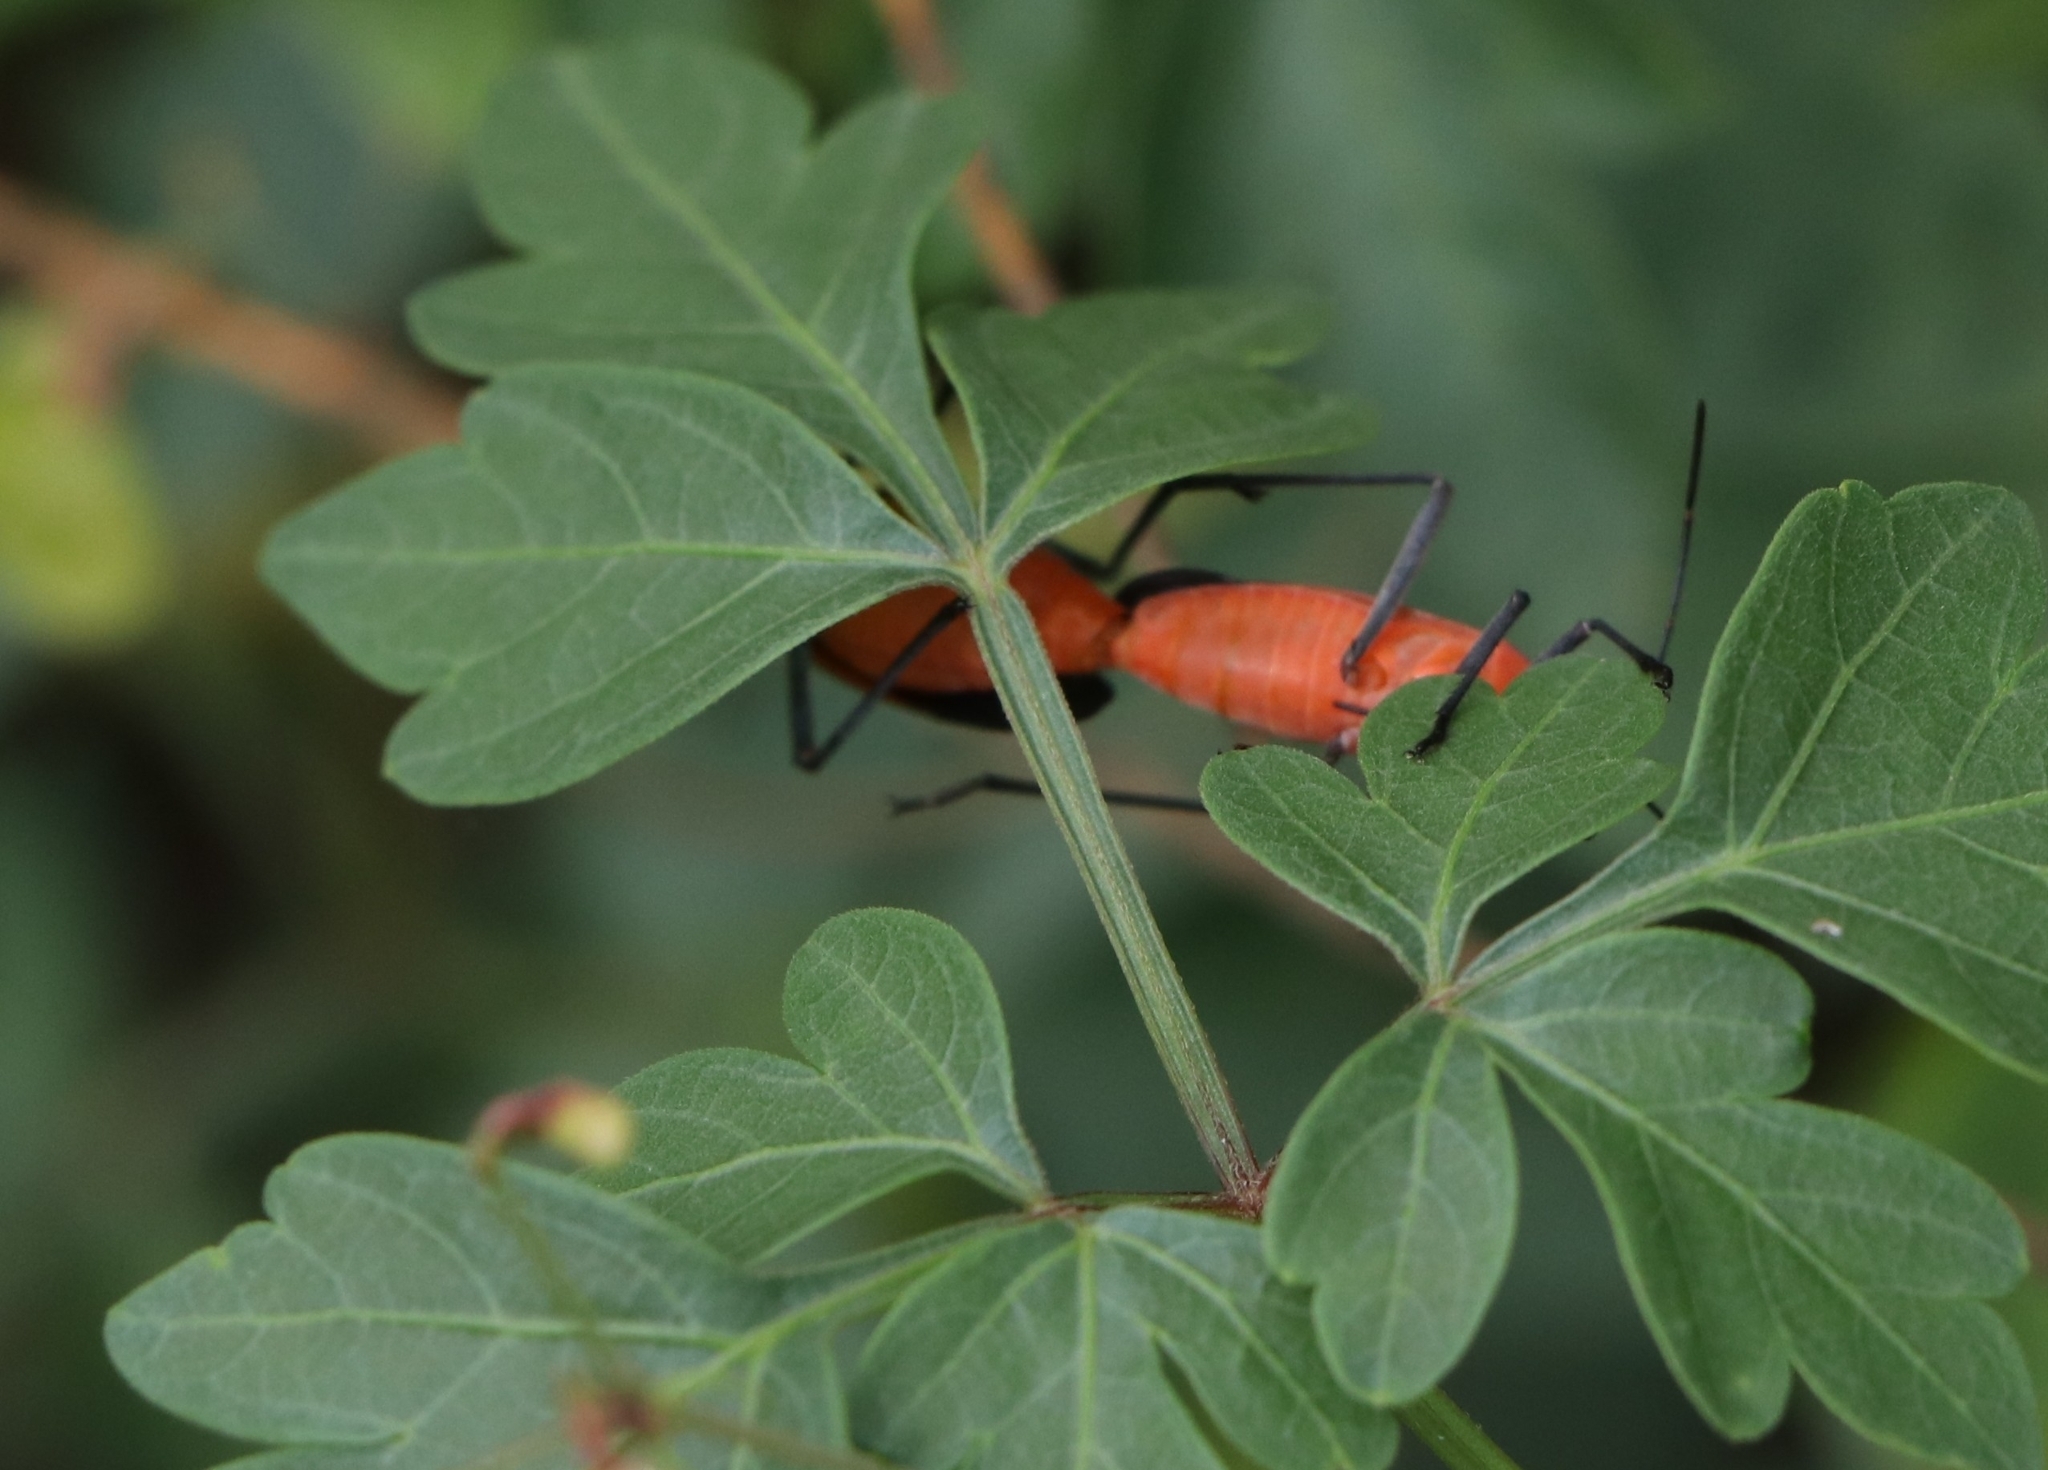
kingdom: Animalia
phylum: Arthropoda
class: Insecta
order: Hemiptera
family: Rhopalidae
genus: Leptocoris
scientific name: Leptocoris augur
